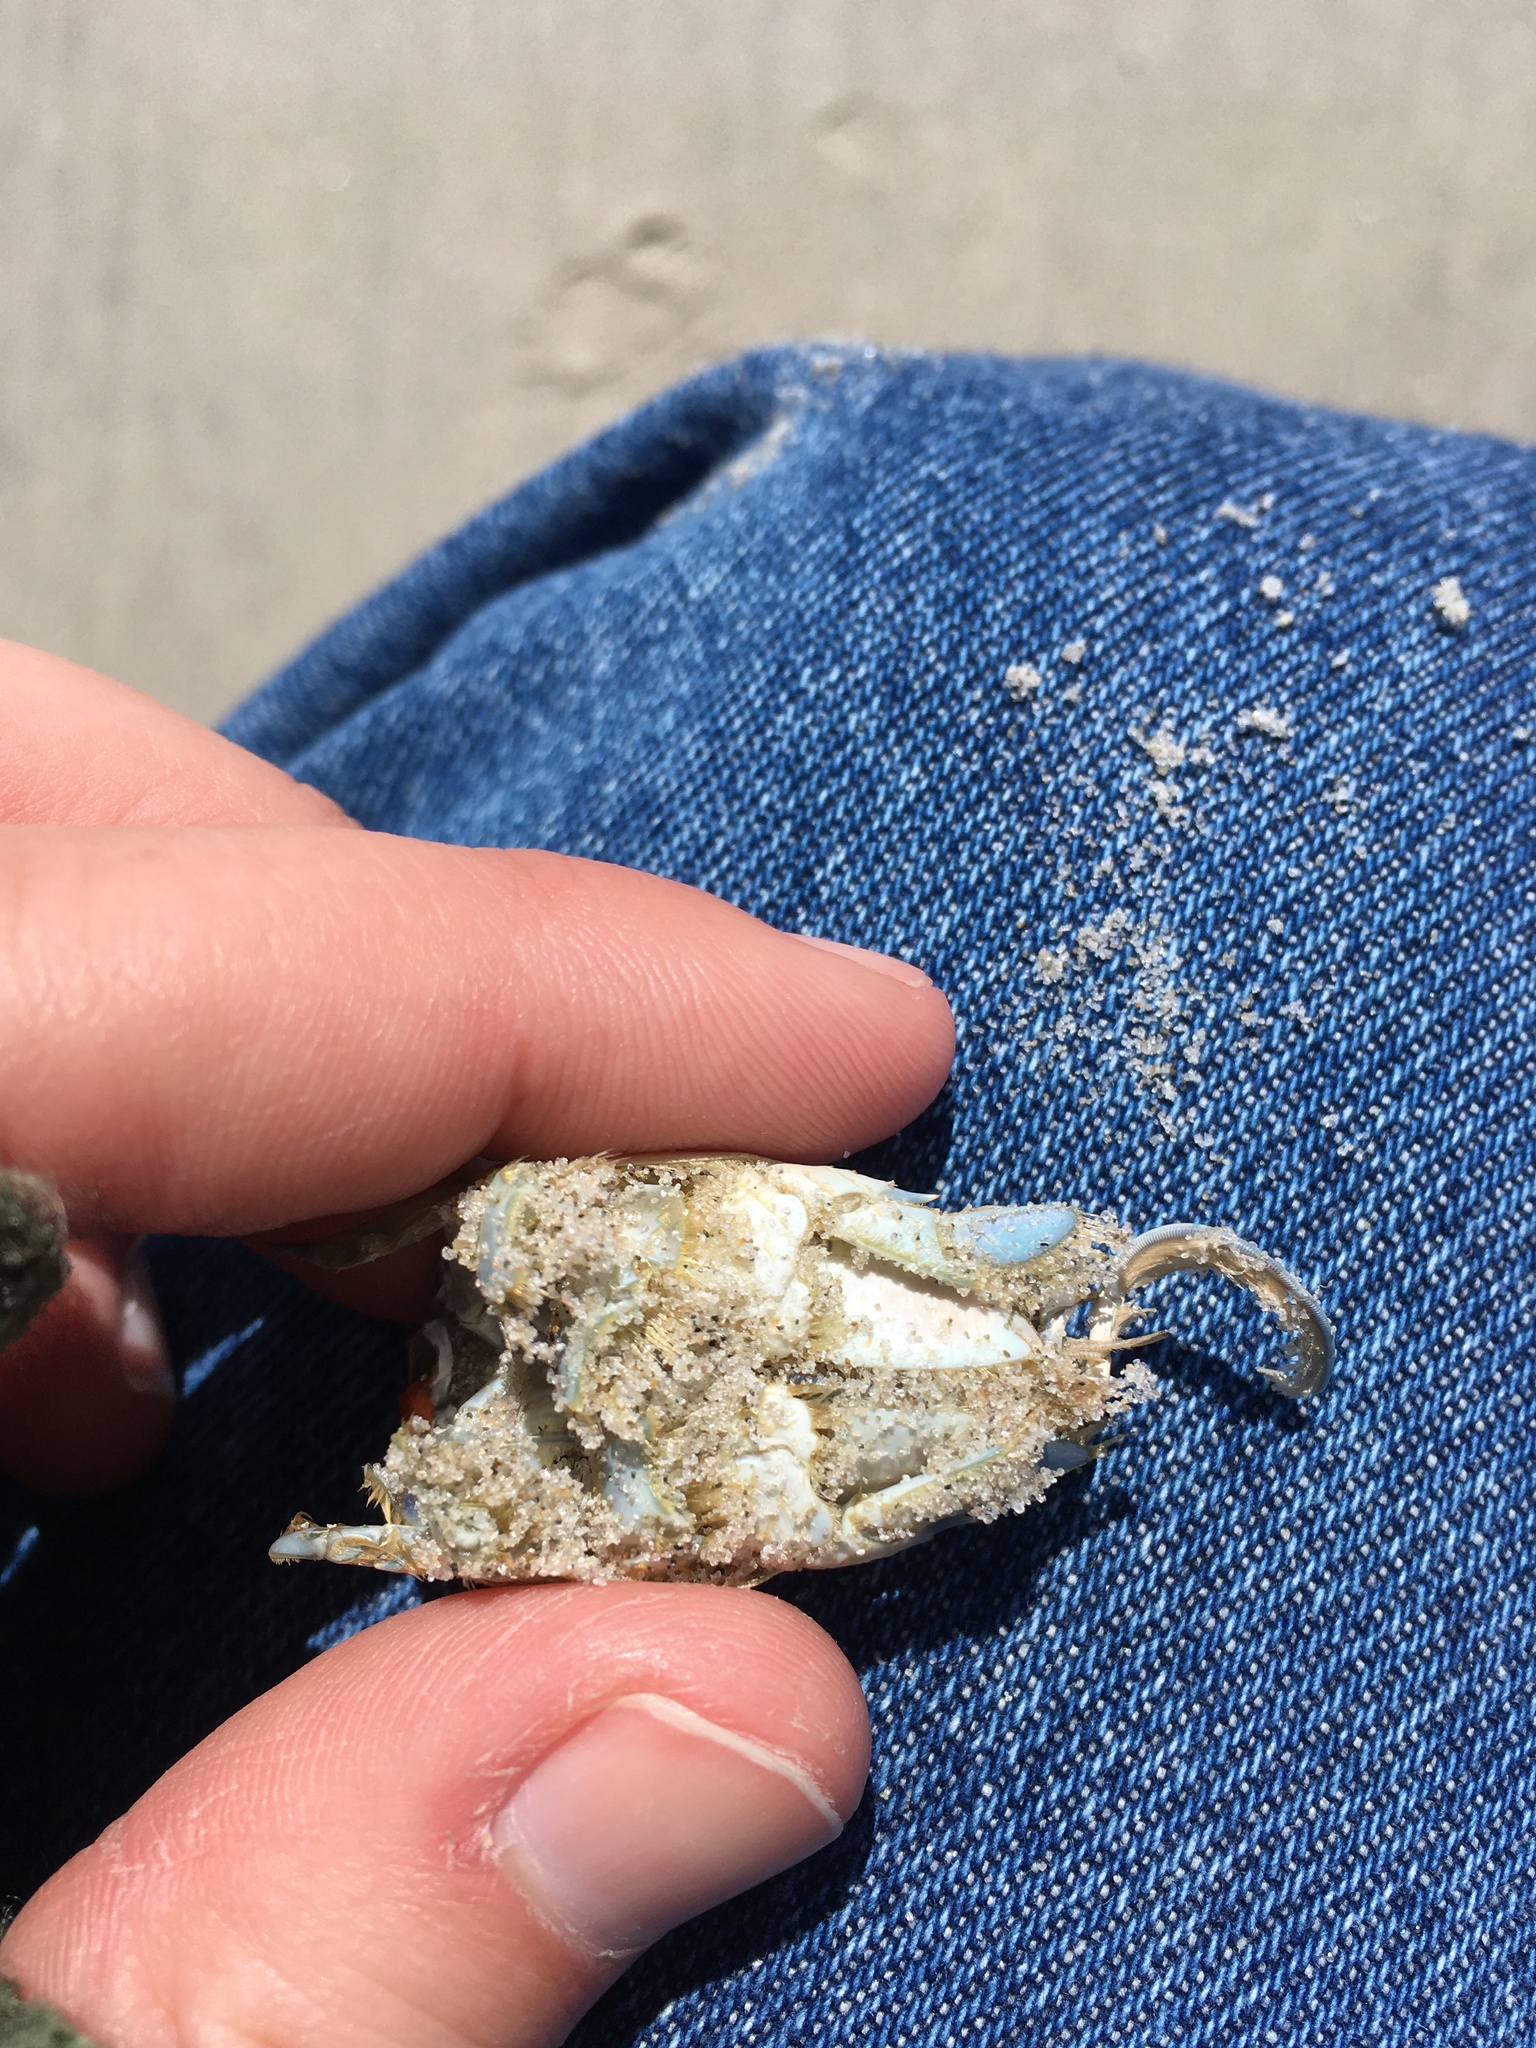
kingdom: Animalia
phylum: Arthropoda
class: Malacostraca
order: Decapoda
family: Hippidae
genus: Emerita
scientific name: Emerita talpoida
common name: Atlantic sand crab
